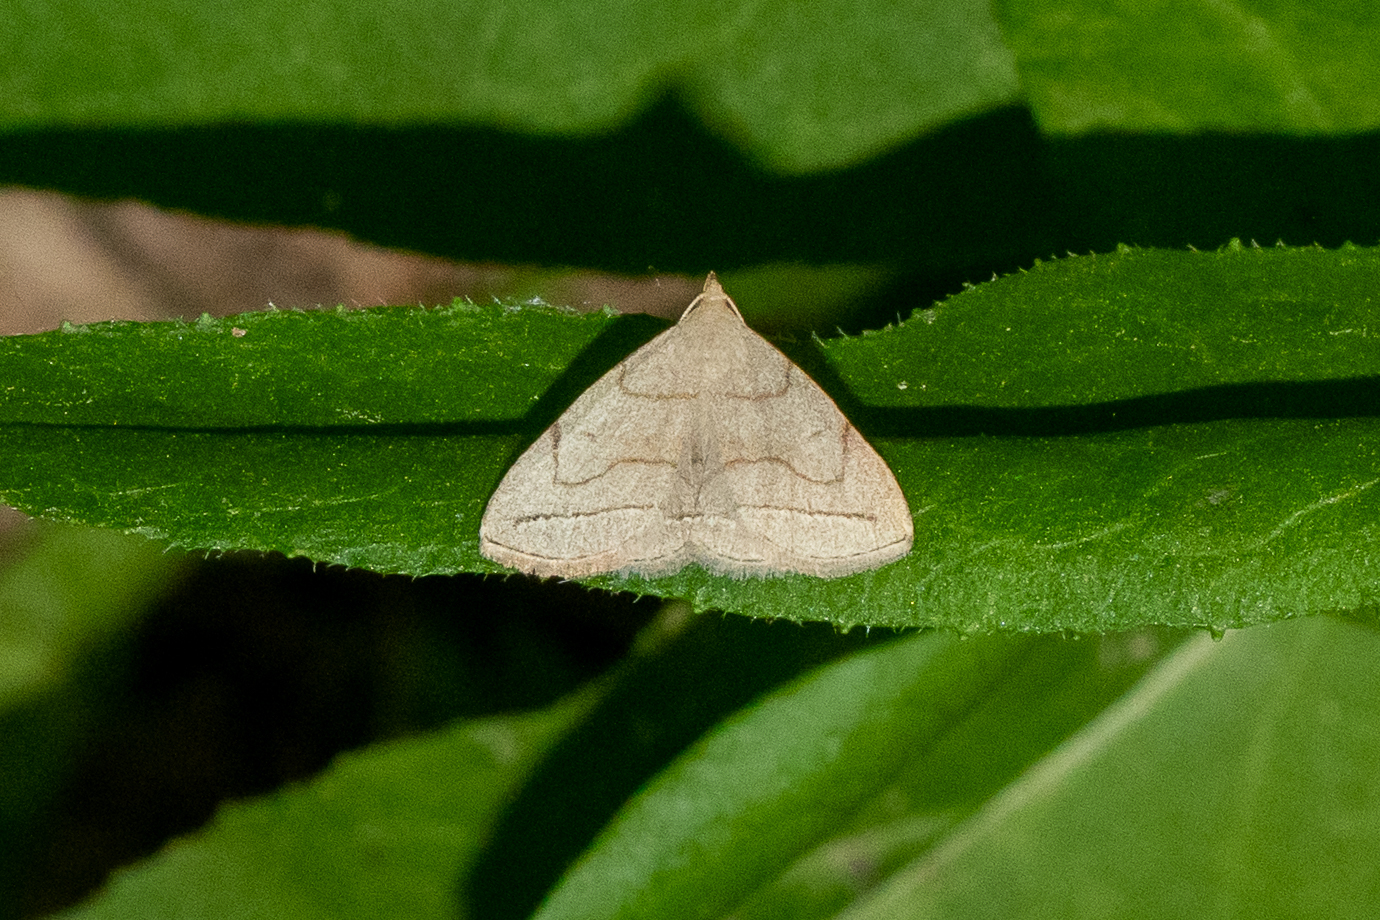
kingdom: Animalia
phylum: Arthropoda
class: Insecta
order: Lepidoptera
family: Erebidae
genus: Zanclognatha
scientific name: Zanclognatha pedipilalis
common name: Grayish fan-foot
